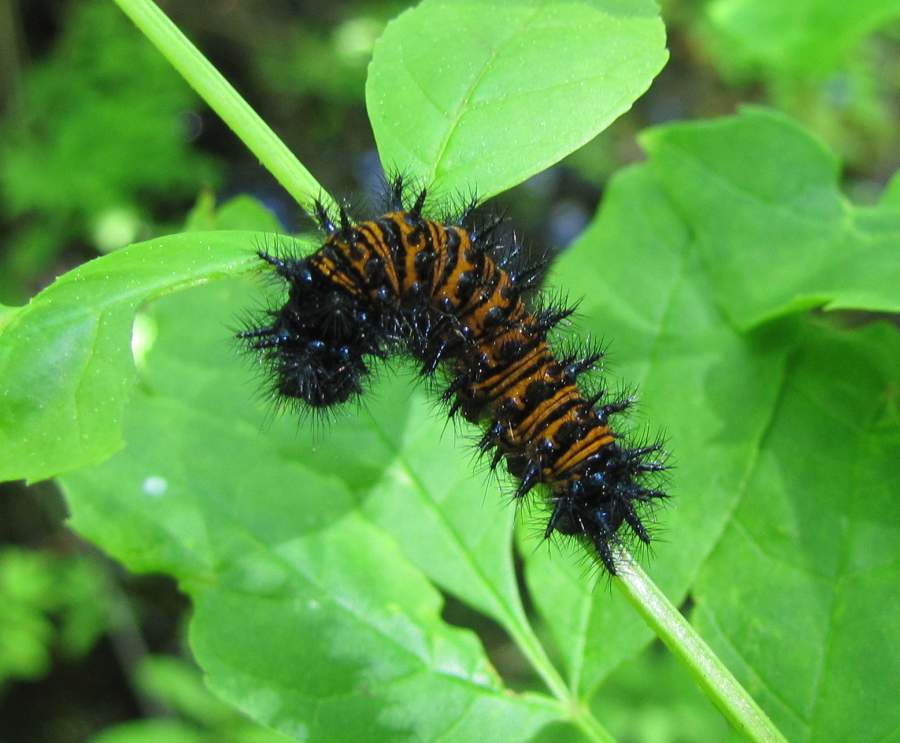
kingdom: Animalia
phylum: Arthropoda
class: Insecta
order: Lepidoptera
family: Nymphalidae
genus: Euphydryas
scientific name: Euphydryas phaeton
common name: Baltimore checkerspot
